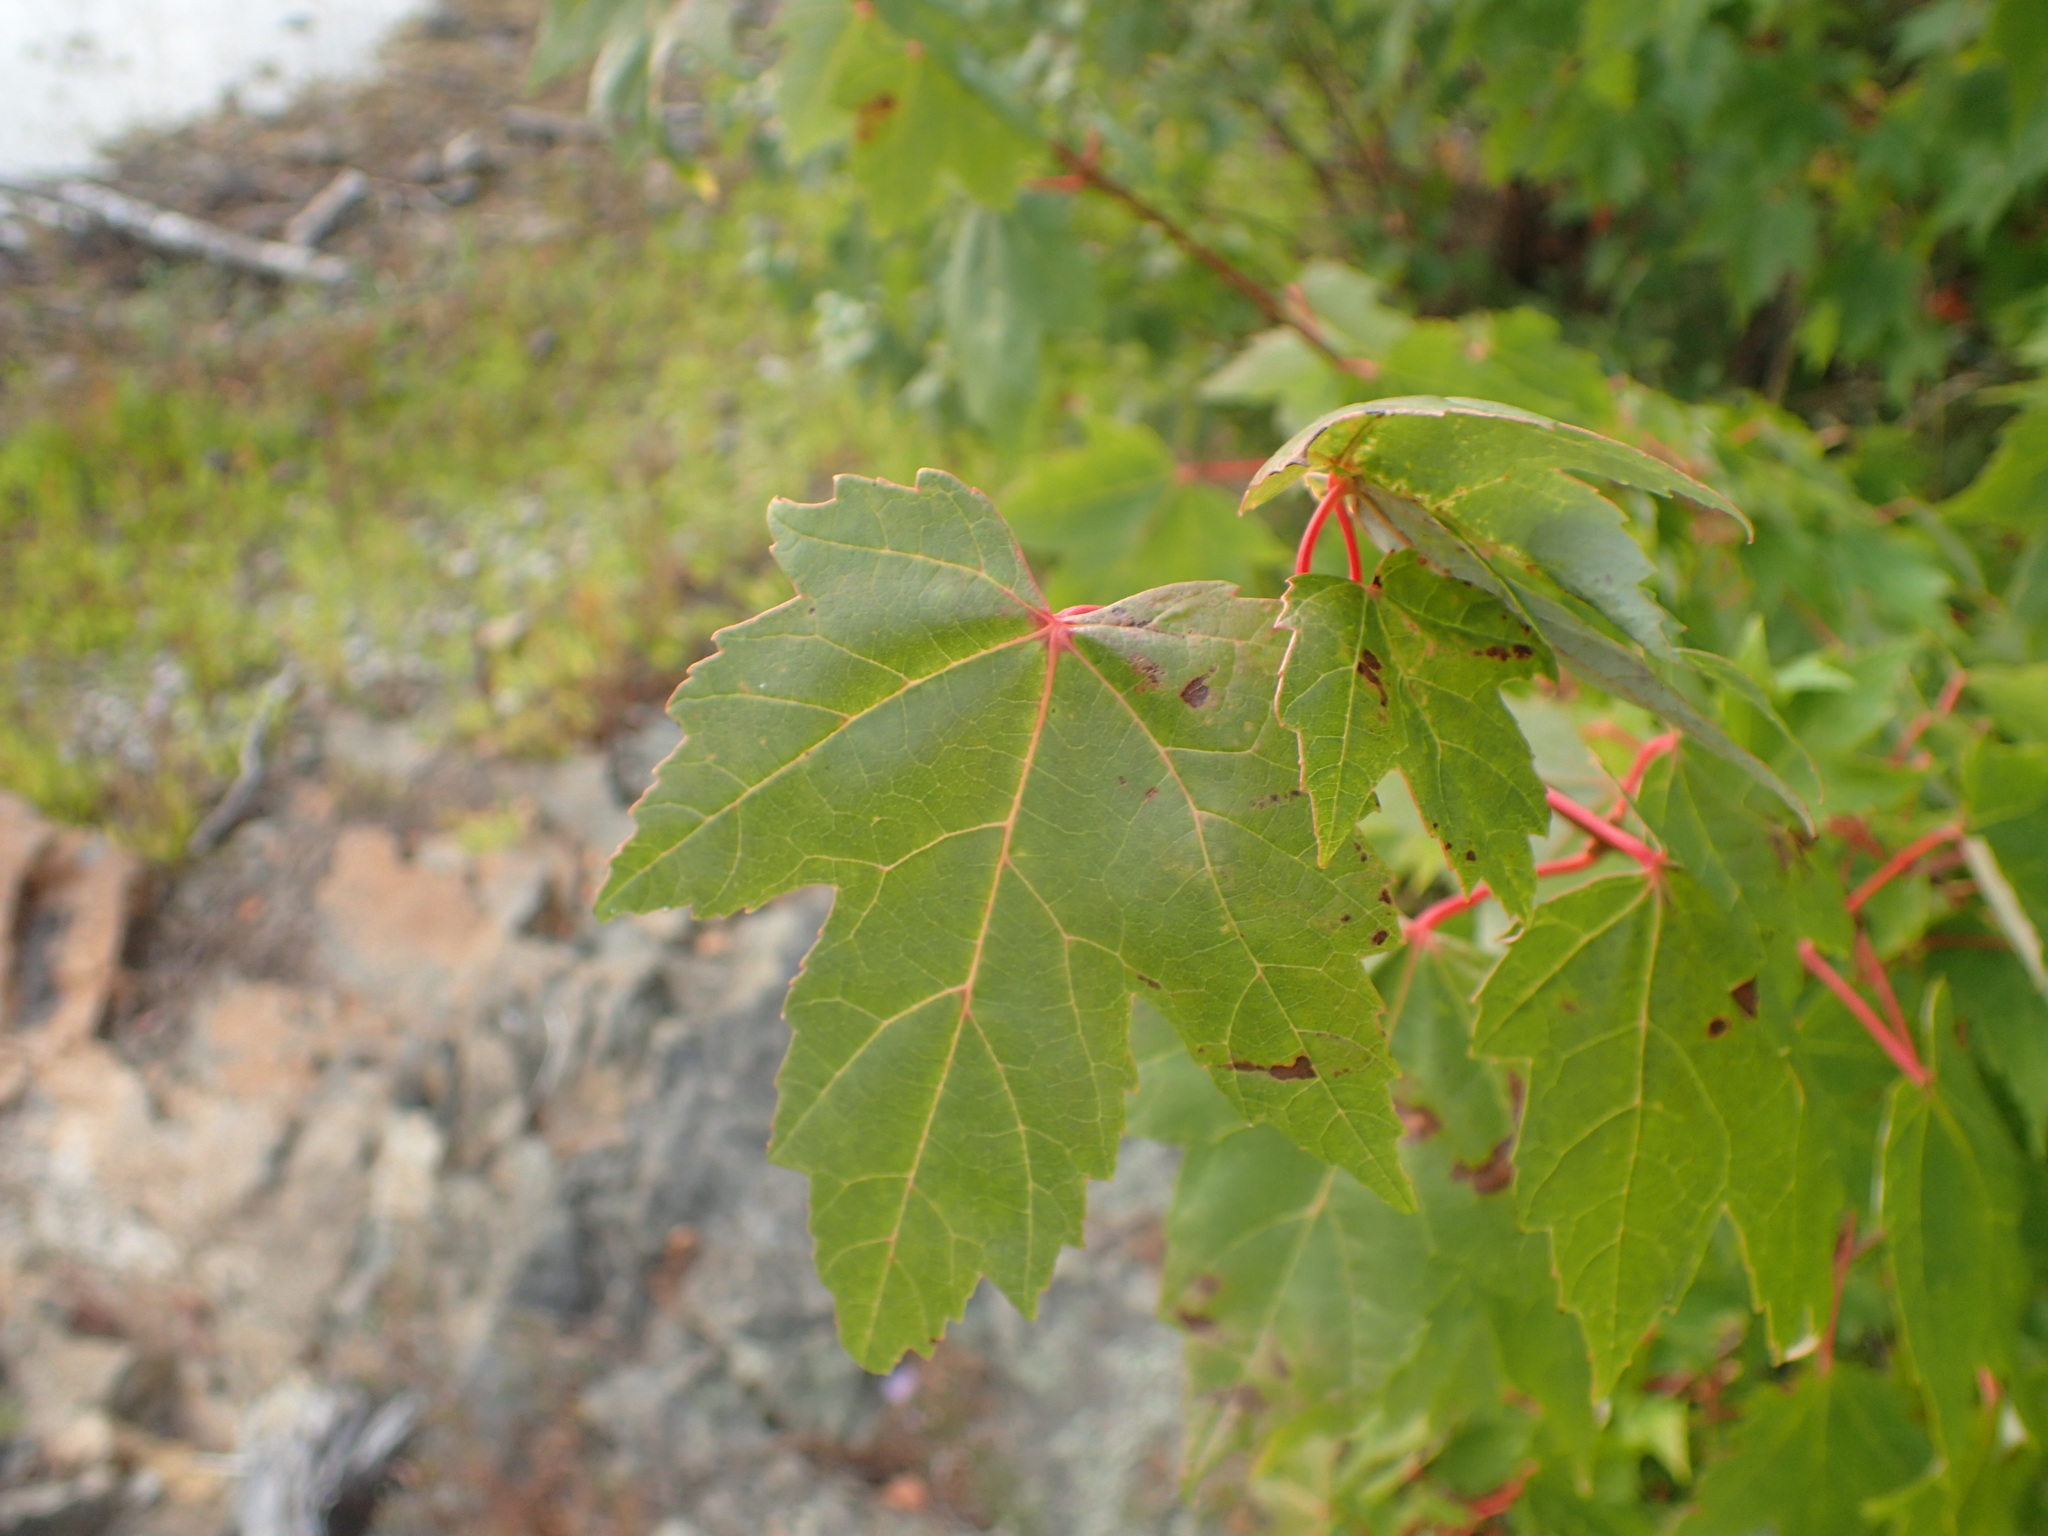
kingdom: Plantae
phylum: Tracheophyta
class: Magnoliopsida
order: Sapindales
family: Sapindaceae
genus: Acer
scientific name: Acer rubrum
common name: Red maple
